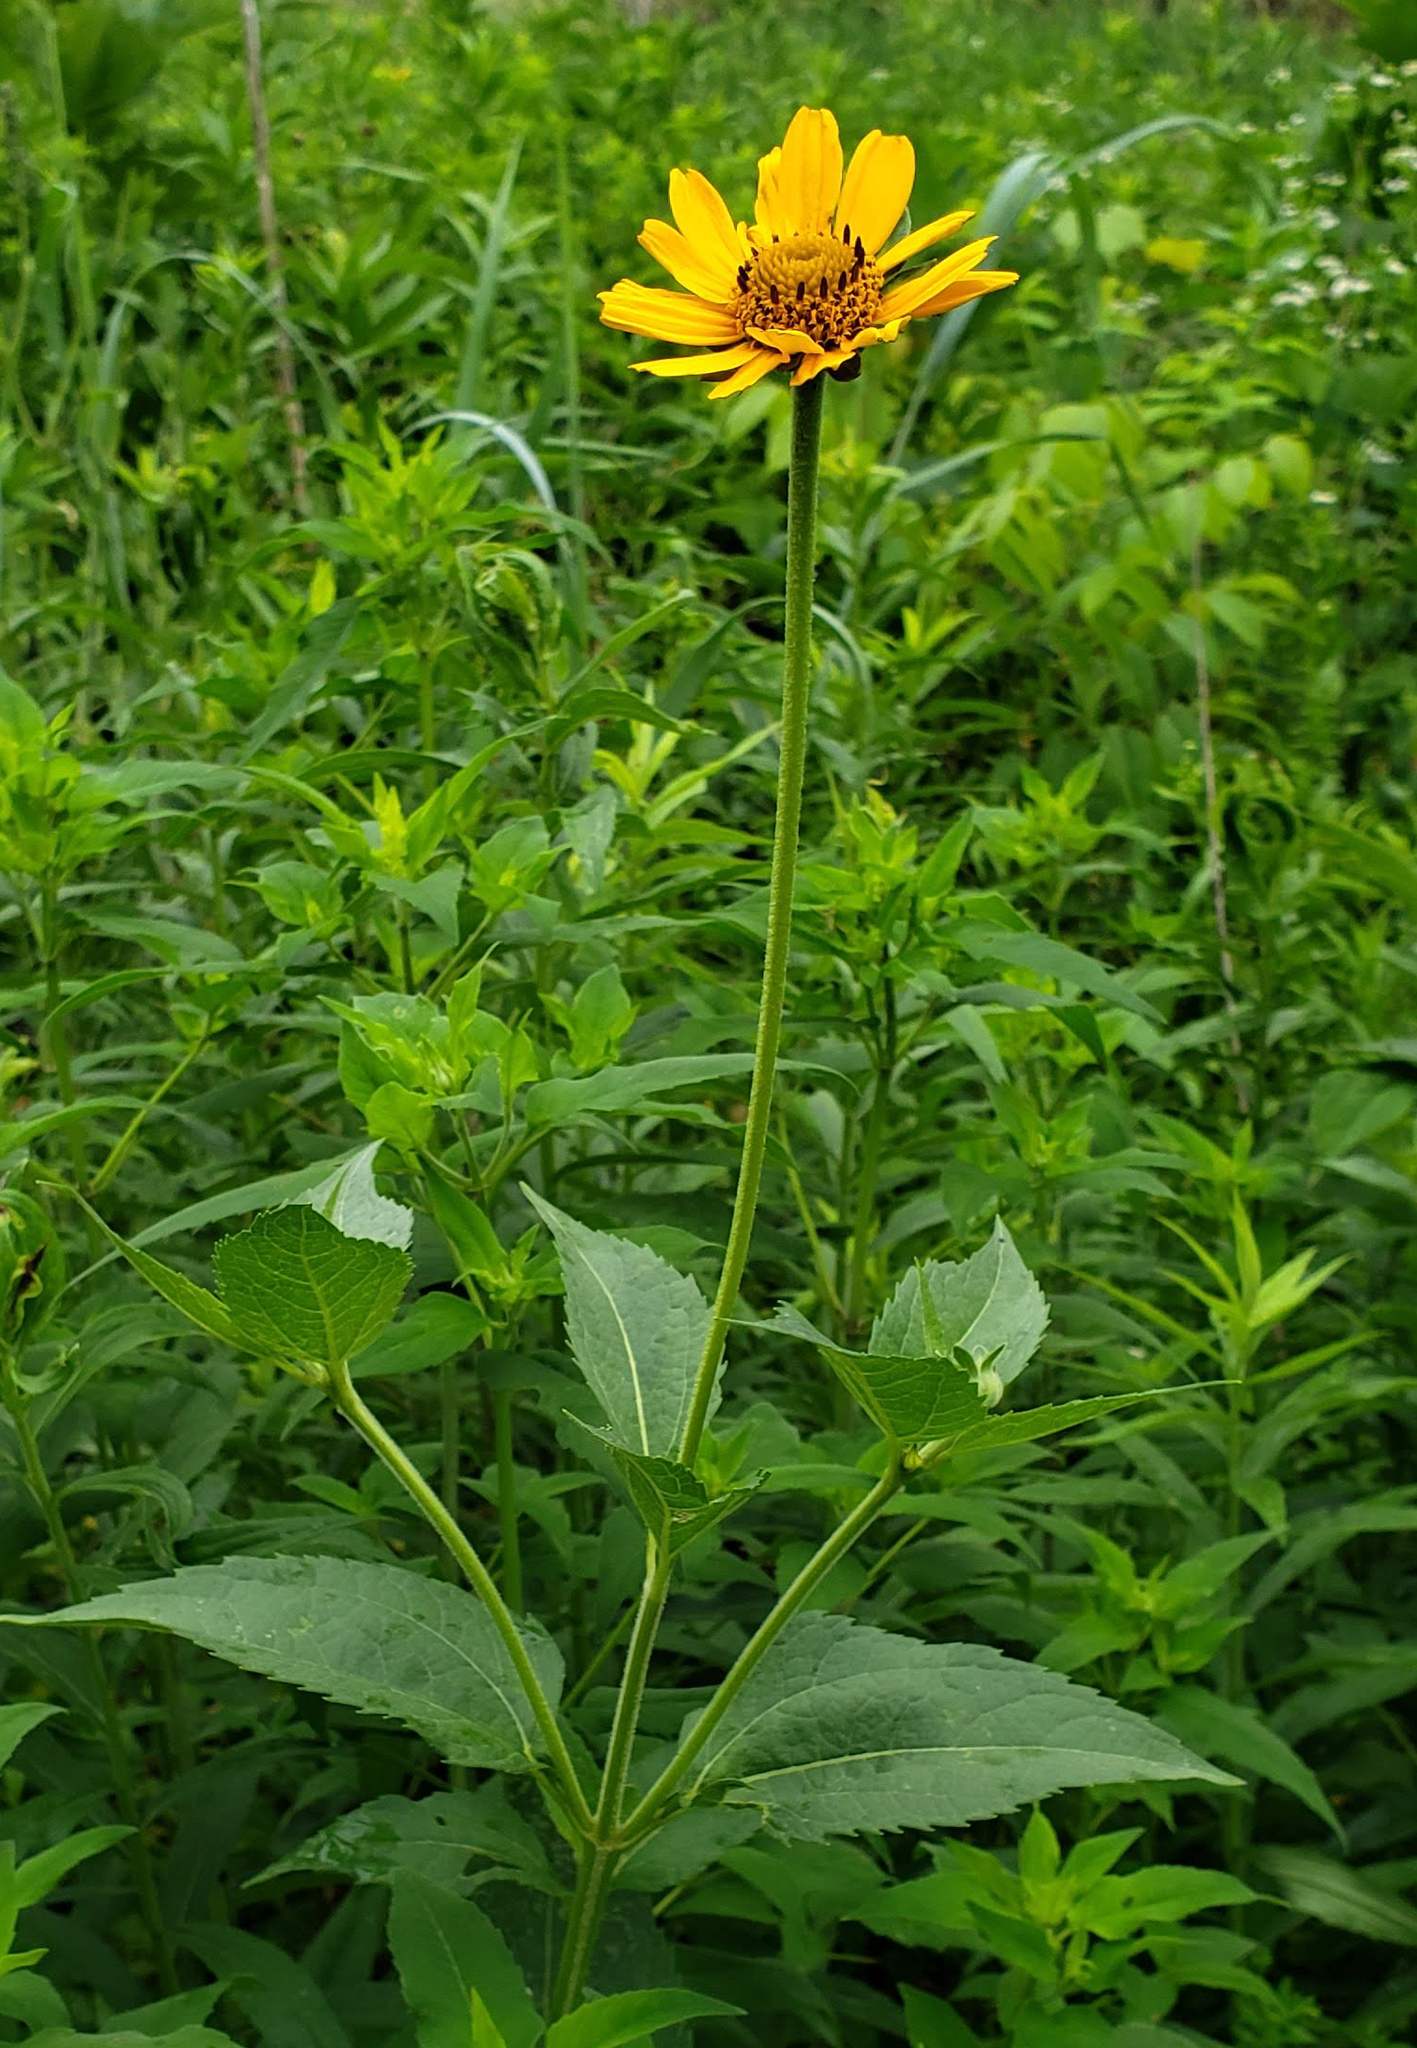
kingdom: Plantae
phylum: Tracheophyta
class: Magnoliopsida
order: Asterales
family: Asteraceae
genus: Heliopsis
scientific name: Heliopsis helianthoides
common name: False sunflower
